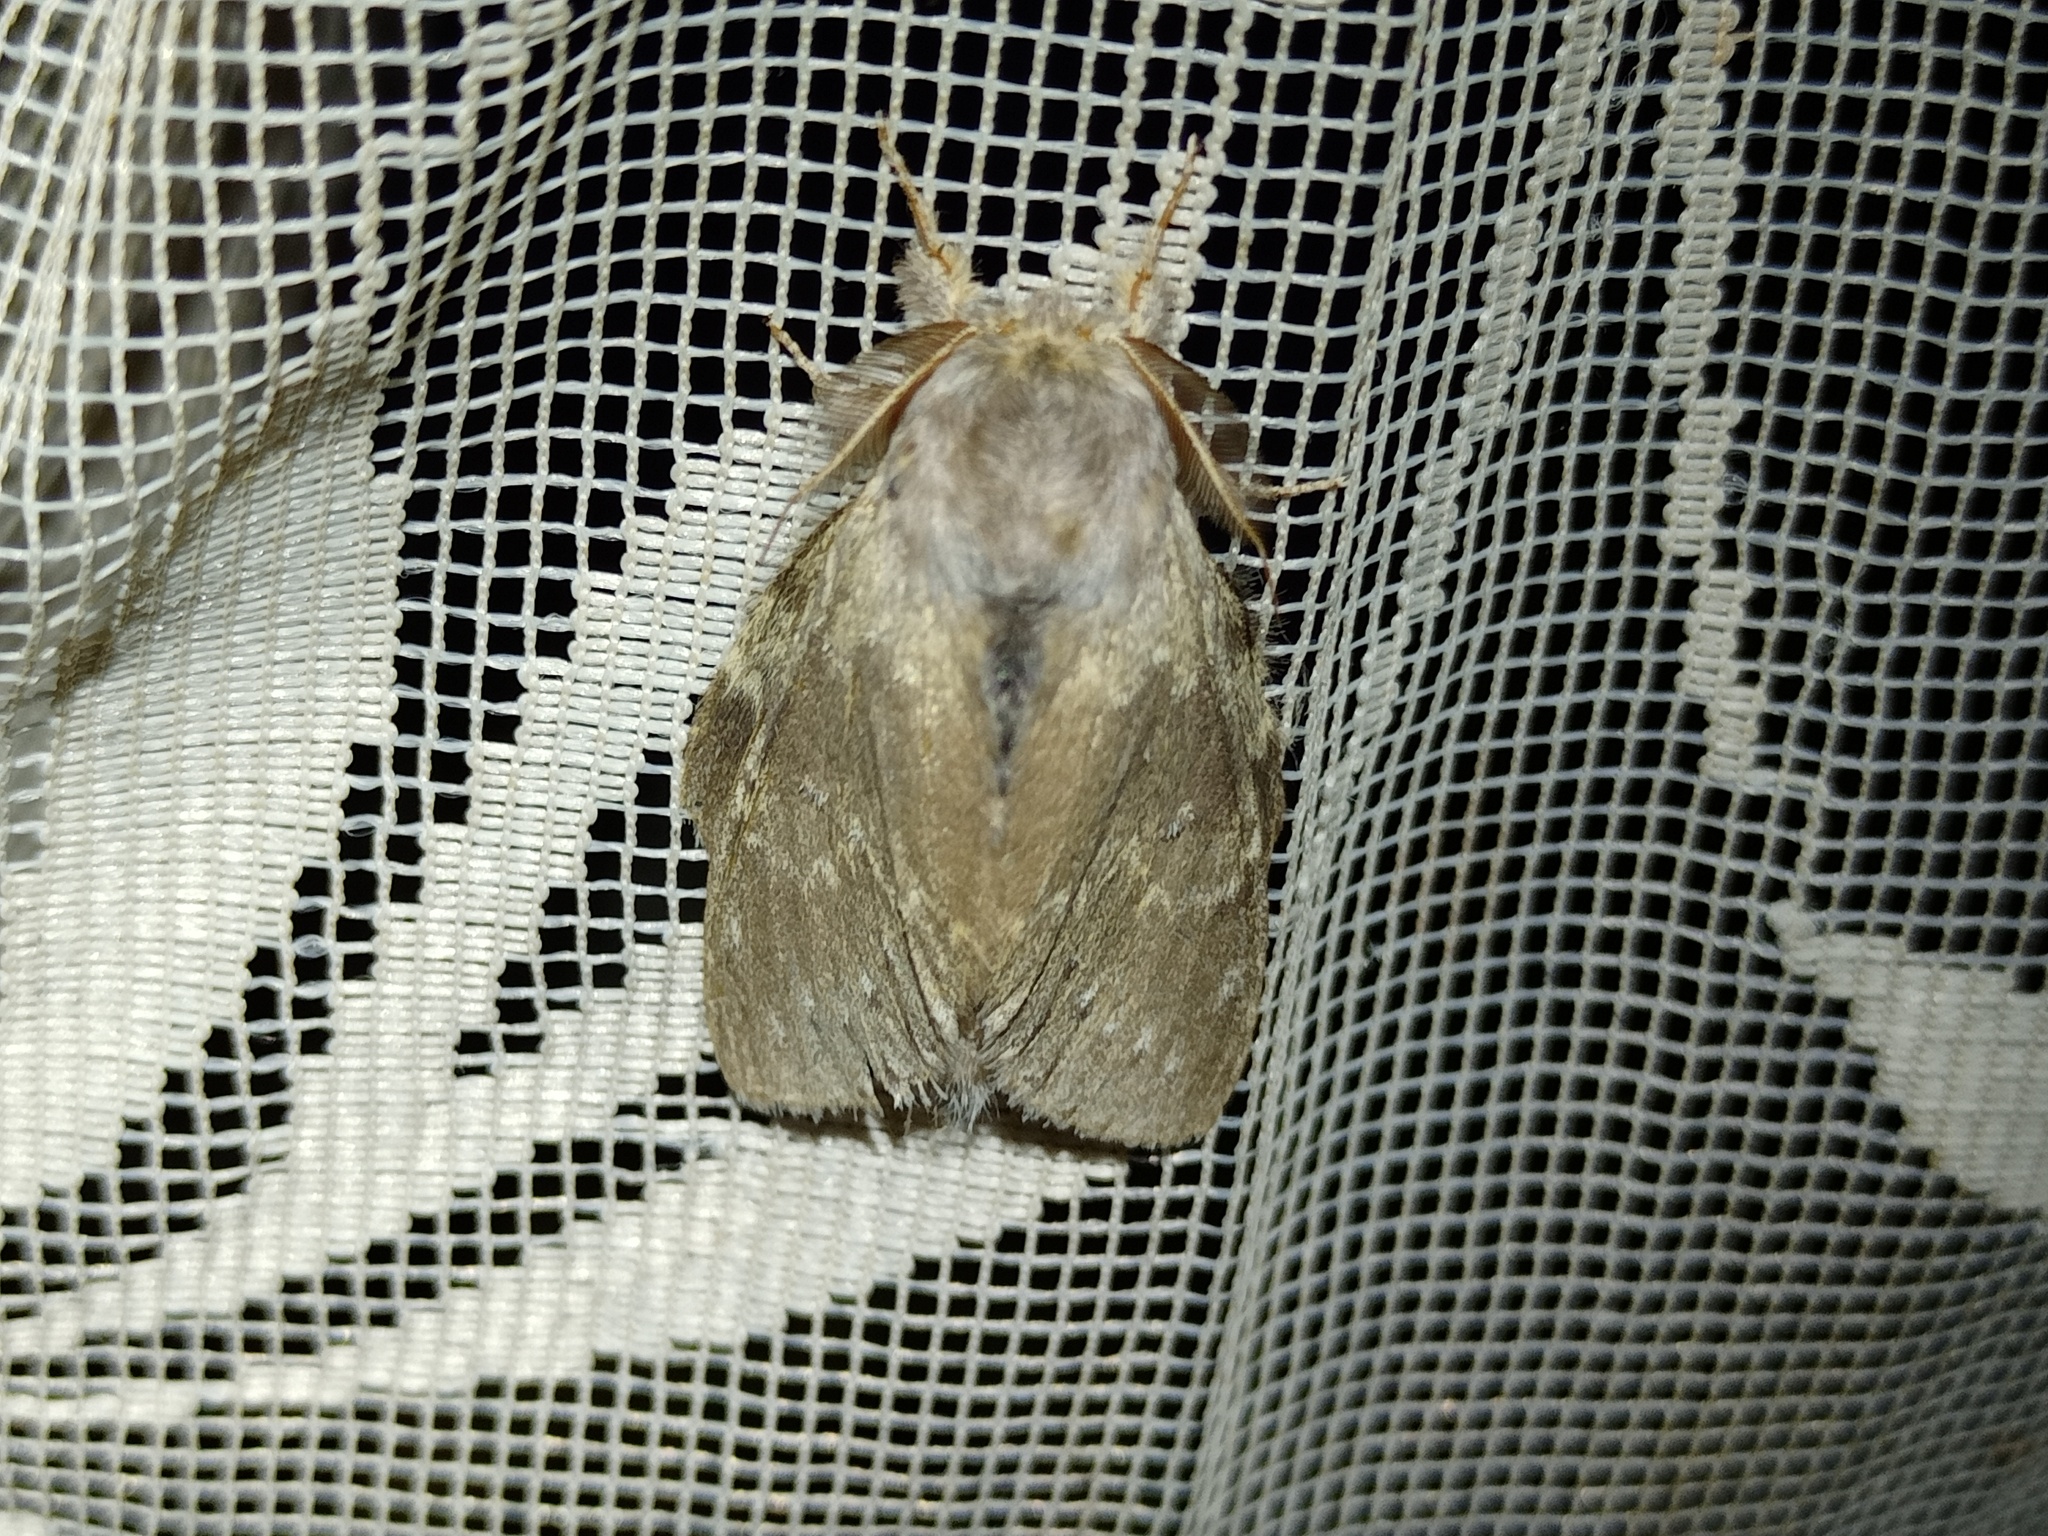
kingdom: Animalia
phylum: Arthropoda
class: Insecta
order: Lepidoptera
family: Notodontidae
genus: Stauropus
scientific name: Stauropus fagi
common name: Lobster moth
